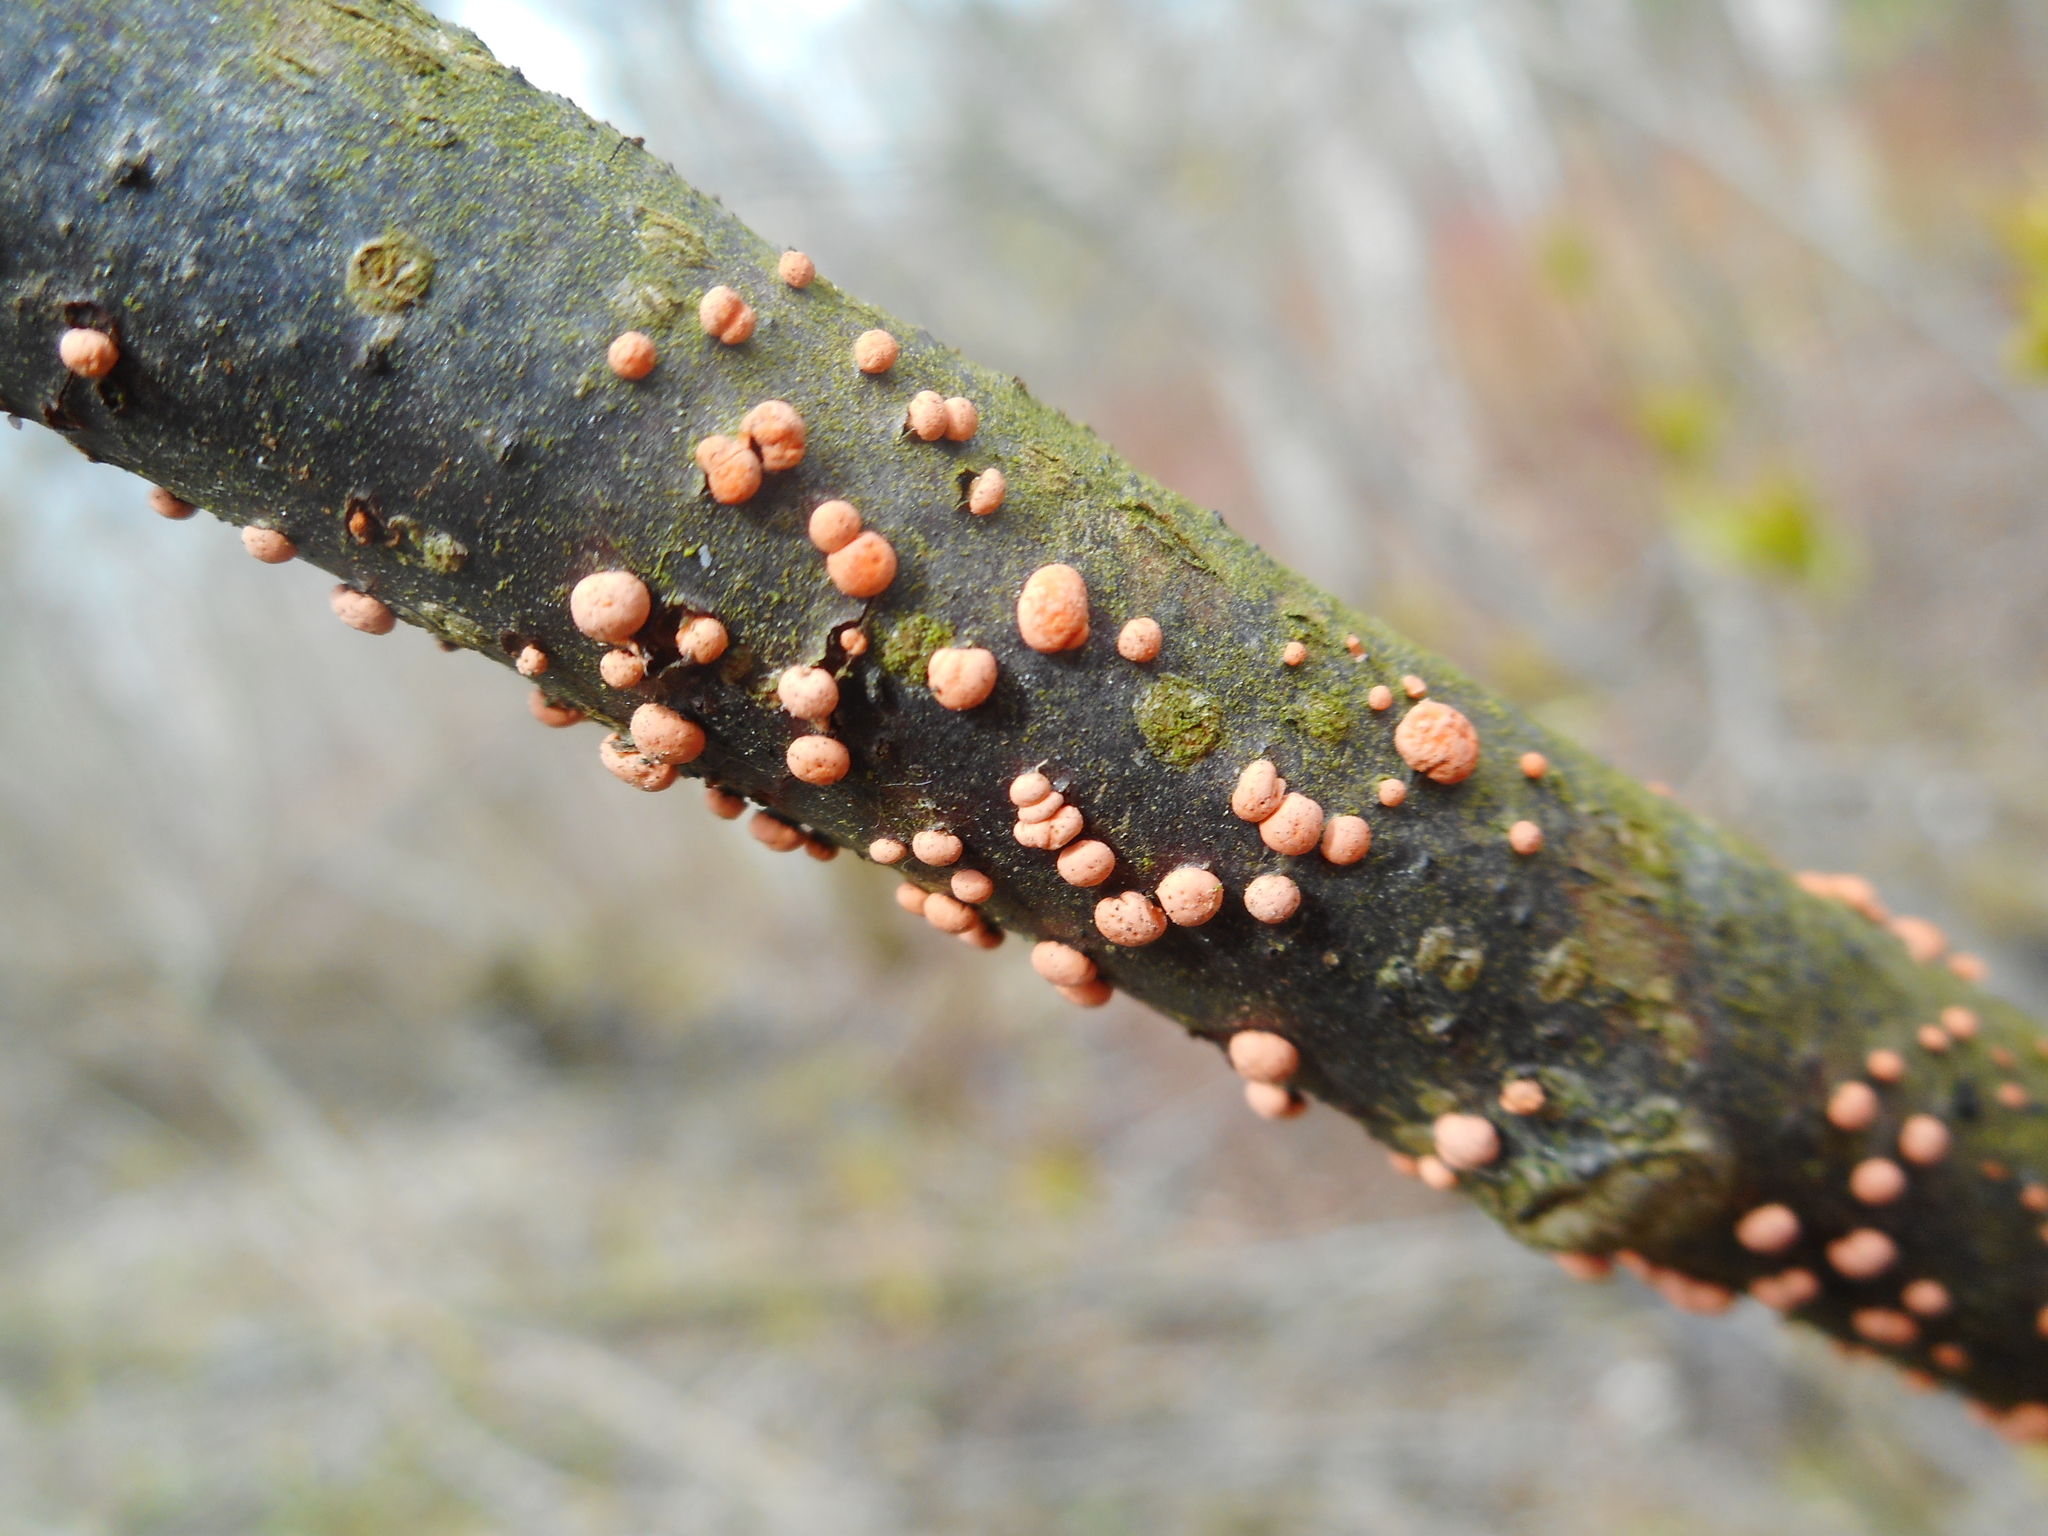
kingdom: Fungi
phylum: Ascomycota
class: Sordariomycetes
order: Hypocreales
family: Nectriaceae
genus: Nectria
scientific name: Nectria cinnabarina
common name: Coral spot
